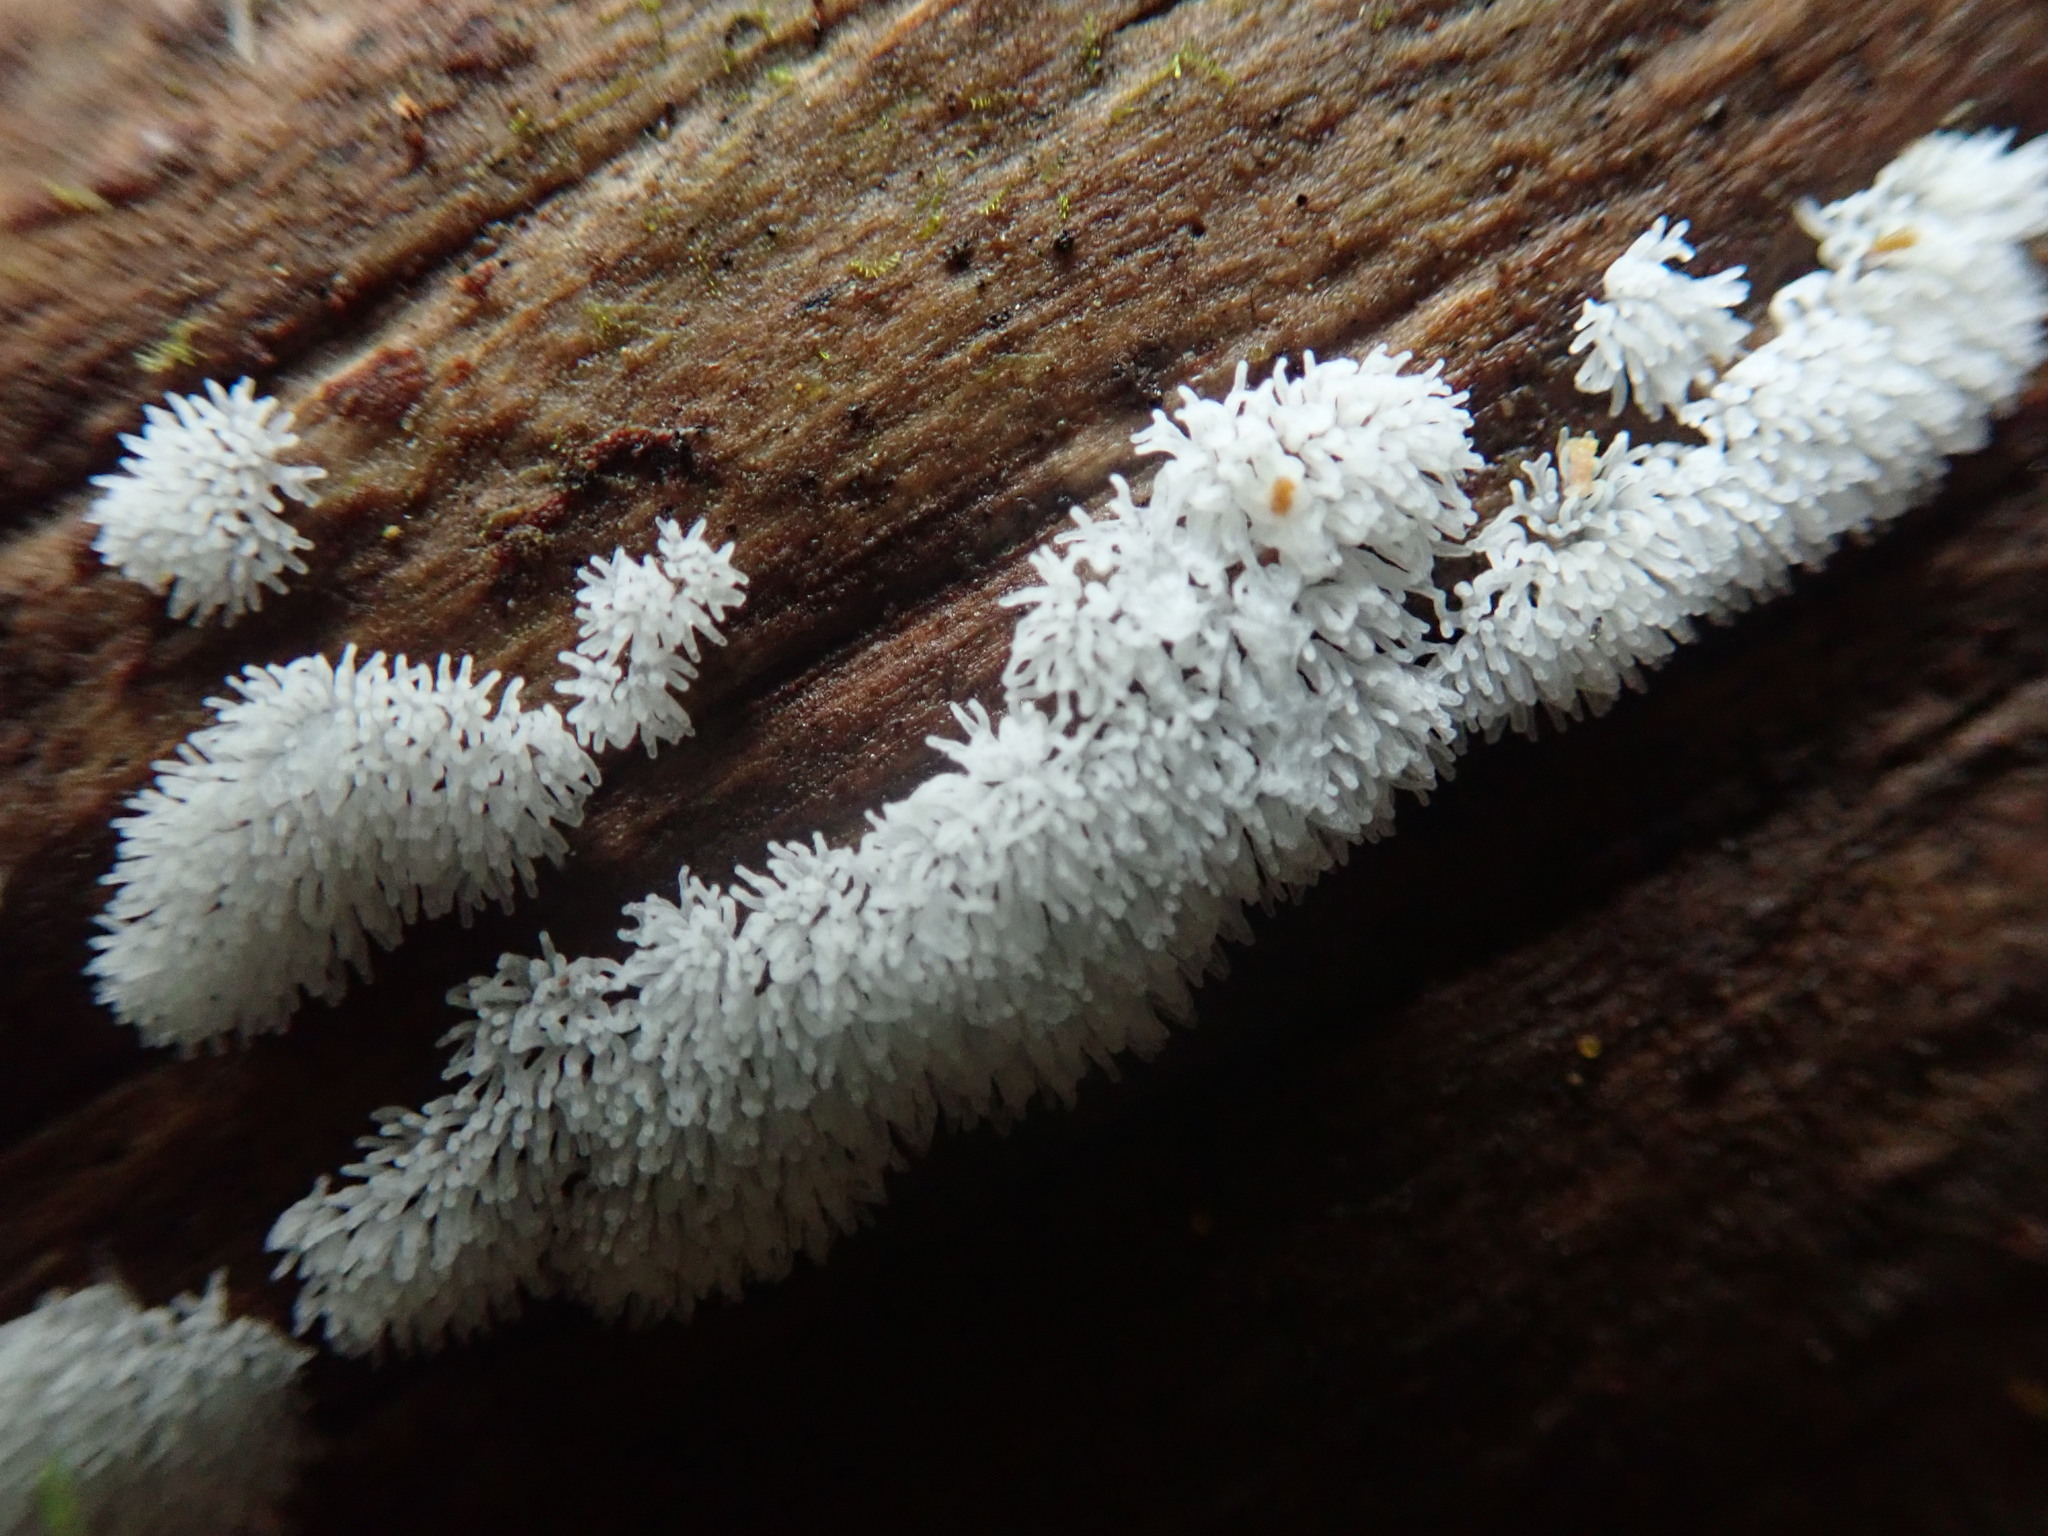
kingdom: Protozoa
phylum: Mycetozoa
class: Protosteliomycetes
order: Ceratiomyxales
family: Ceratiomyxaceae
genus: Ceratiomyxa
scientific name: Ceratiomyxa fruticulosa
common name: Honeycomb coral slime mold
